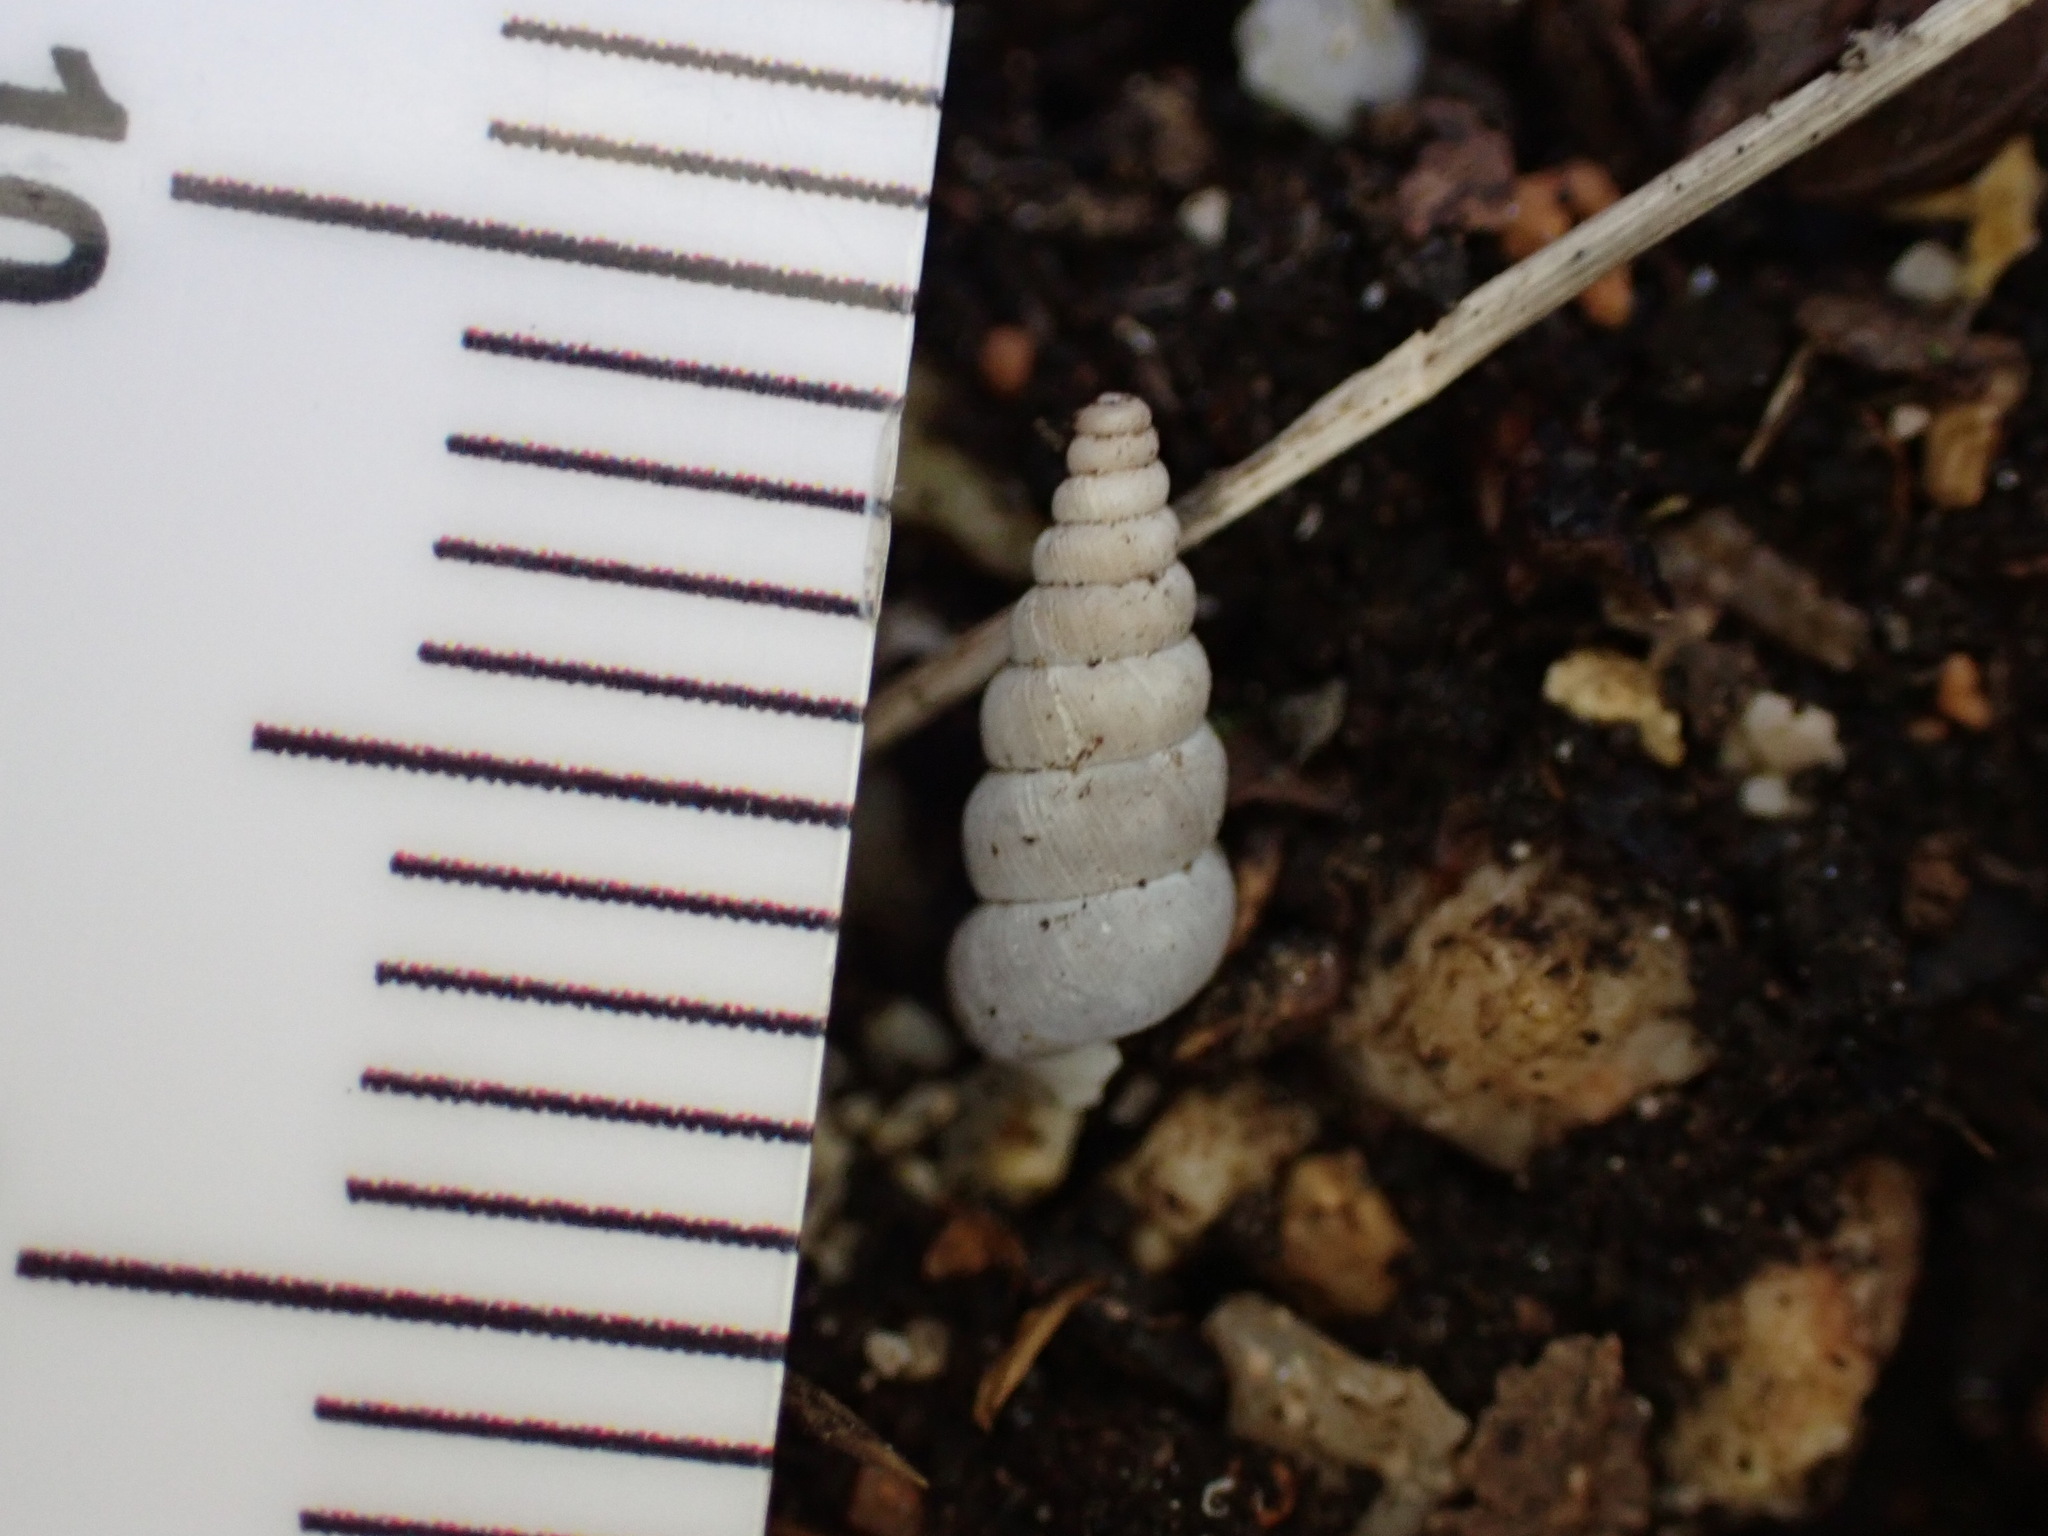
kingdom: Animalia
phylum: Mollusca
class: Gastropoda
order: Architaenioglossa
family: Cochlostomatidae
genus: Cochlostoma
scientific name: Cochlostoma patulum
